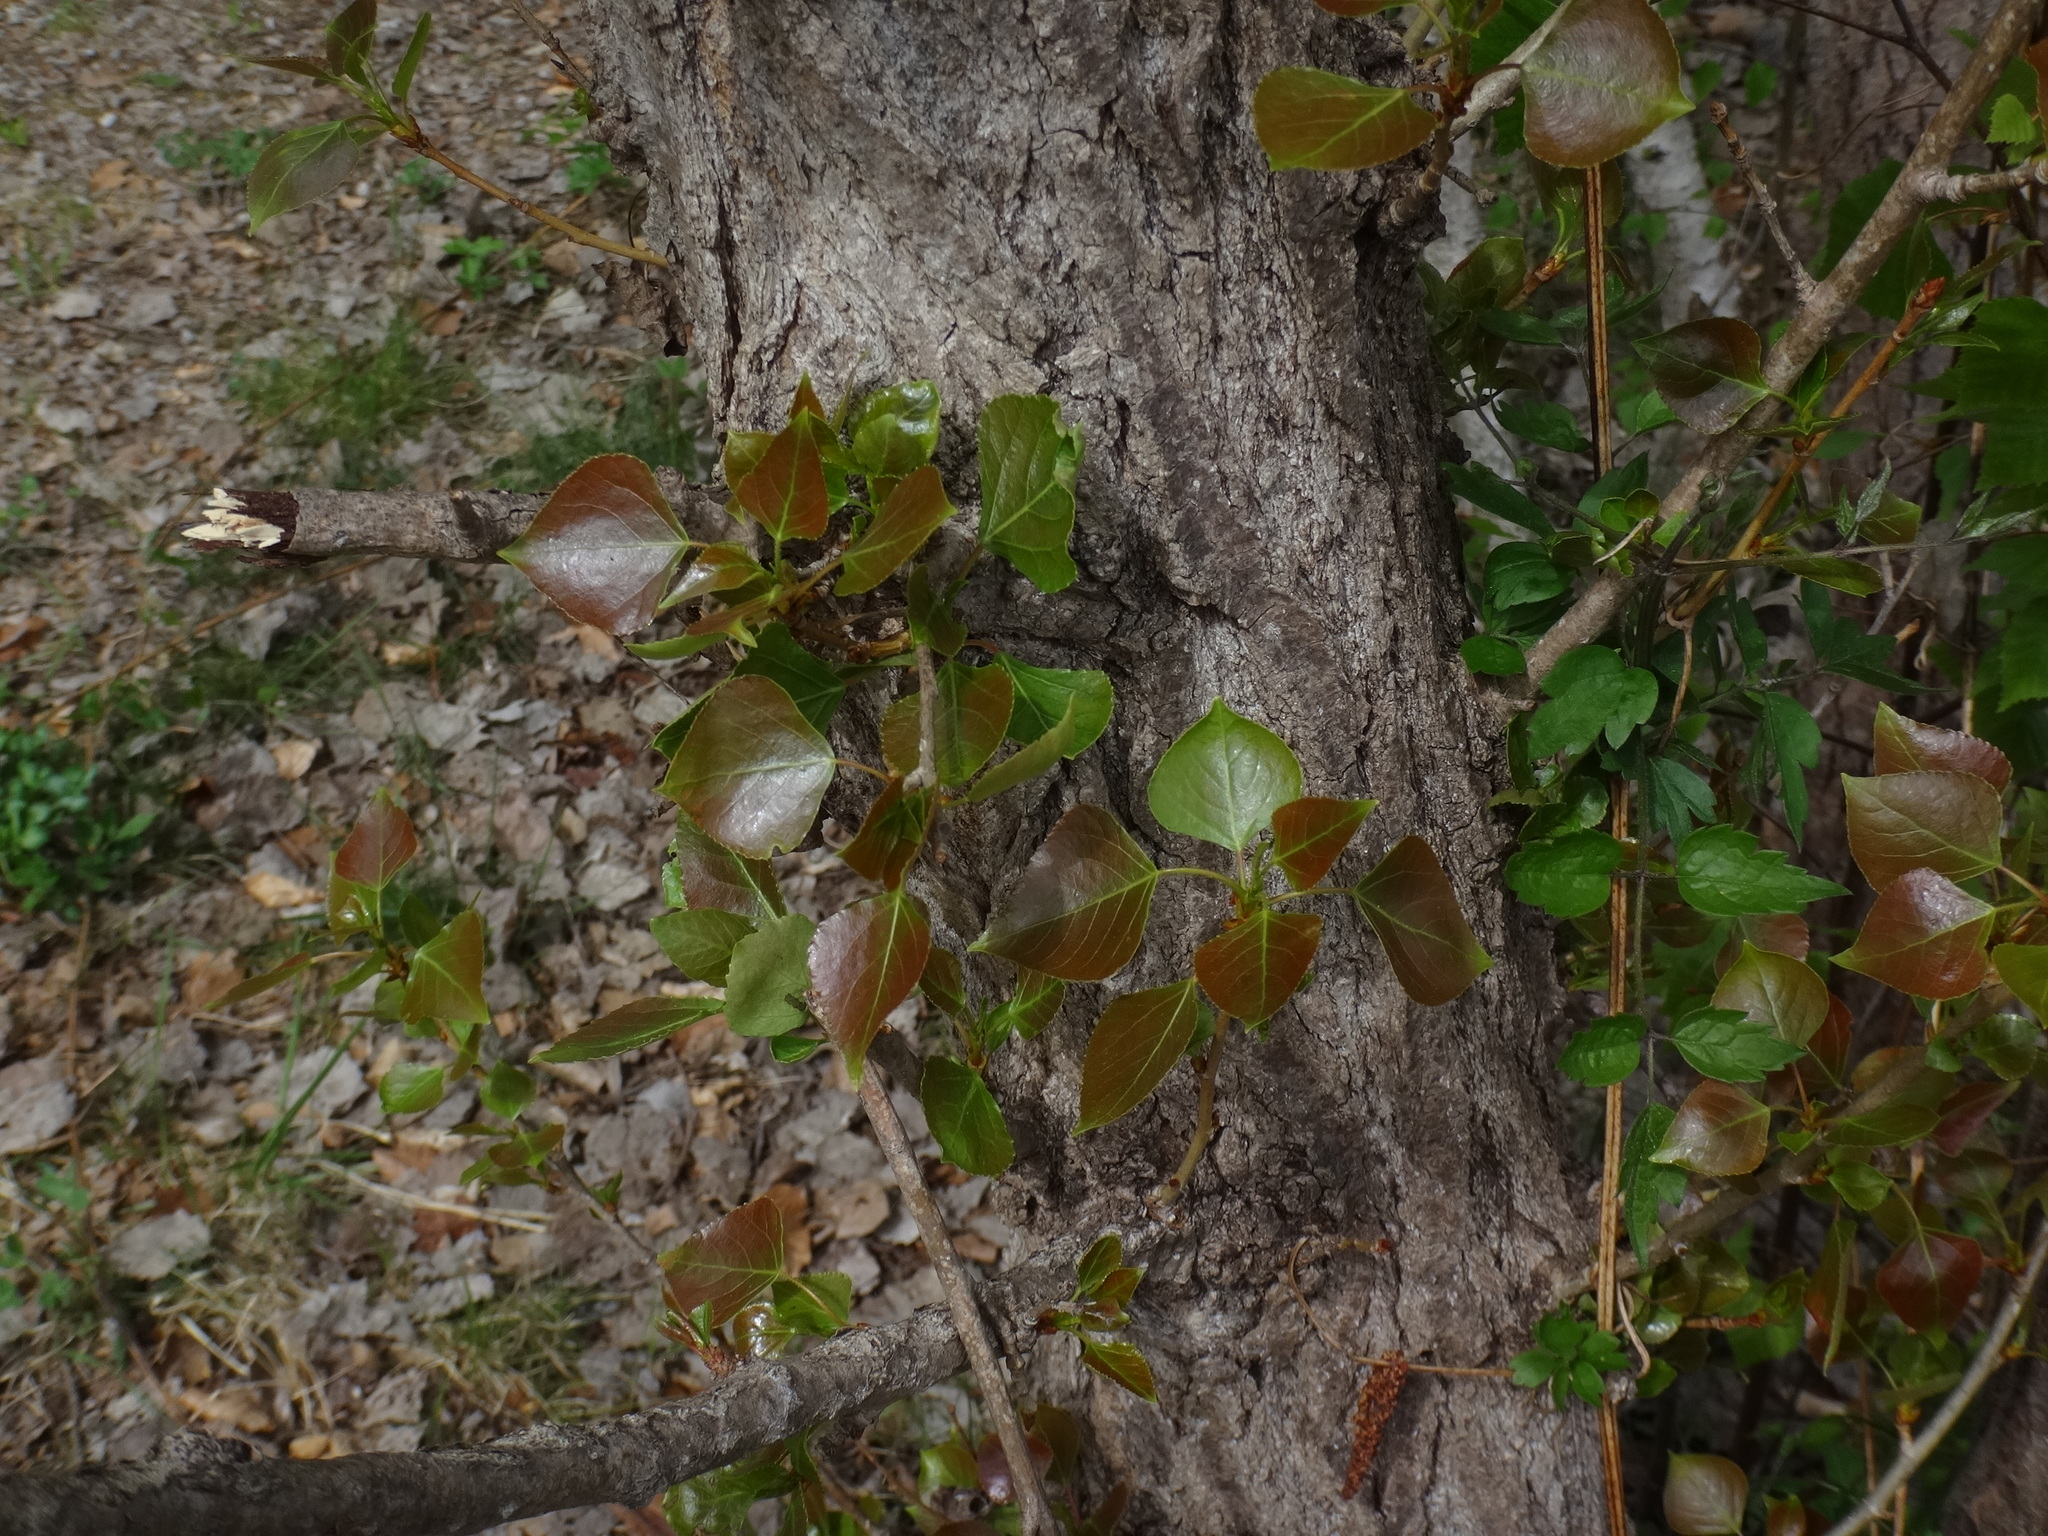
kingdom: Plantae
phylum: Tracheophyta
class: Magnoliopsida
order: Malpighiales
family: Salicaceae
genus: Populus
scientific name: Populus nigra
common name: Black poplar
